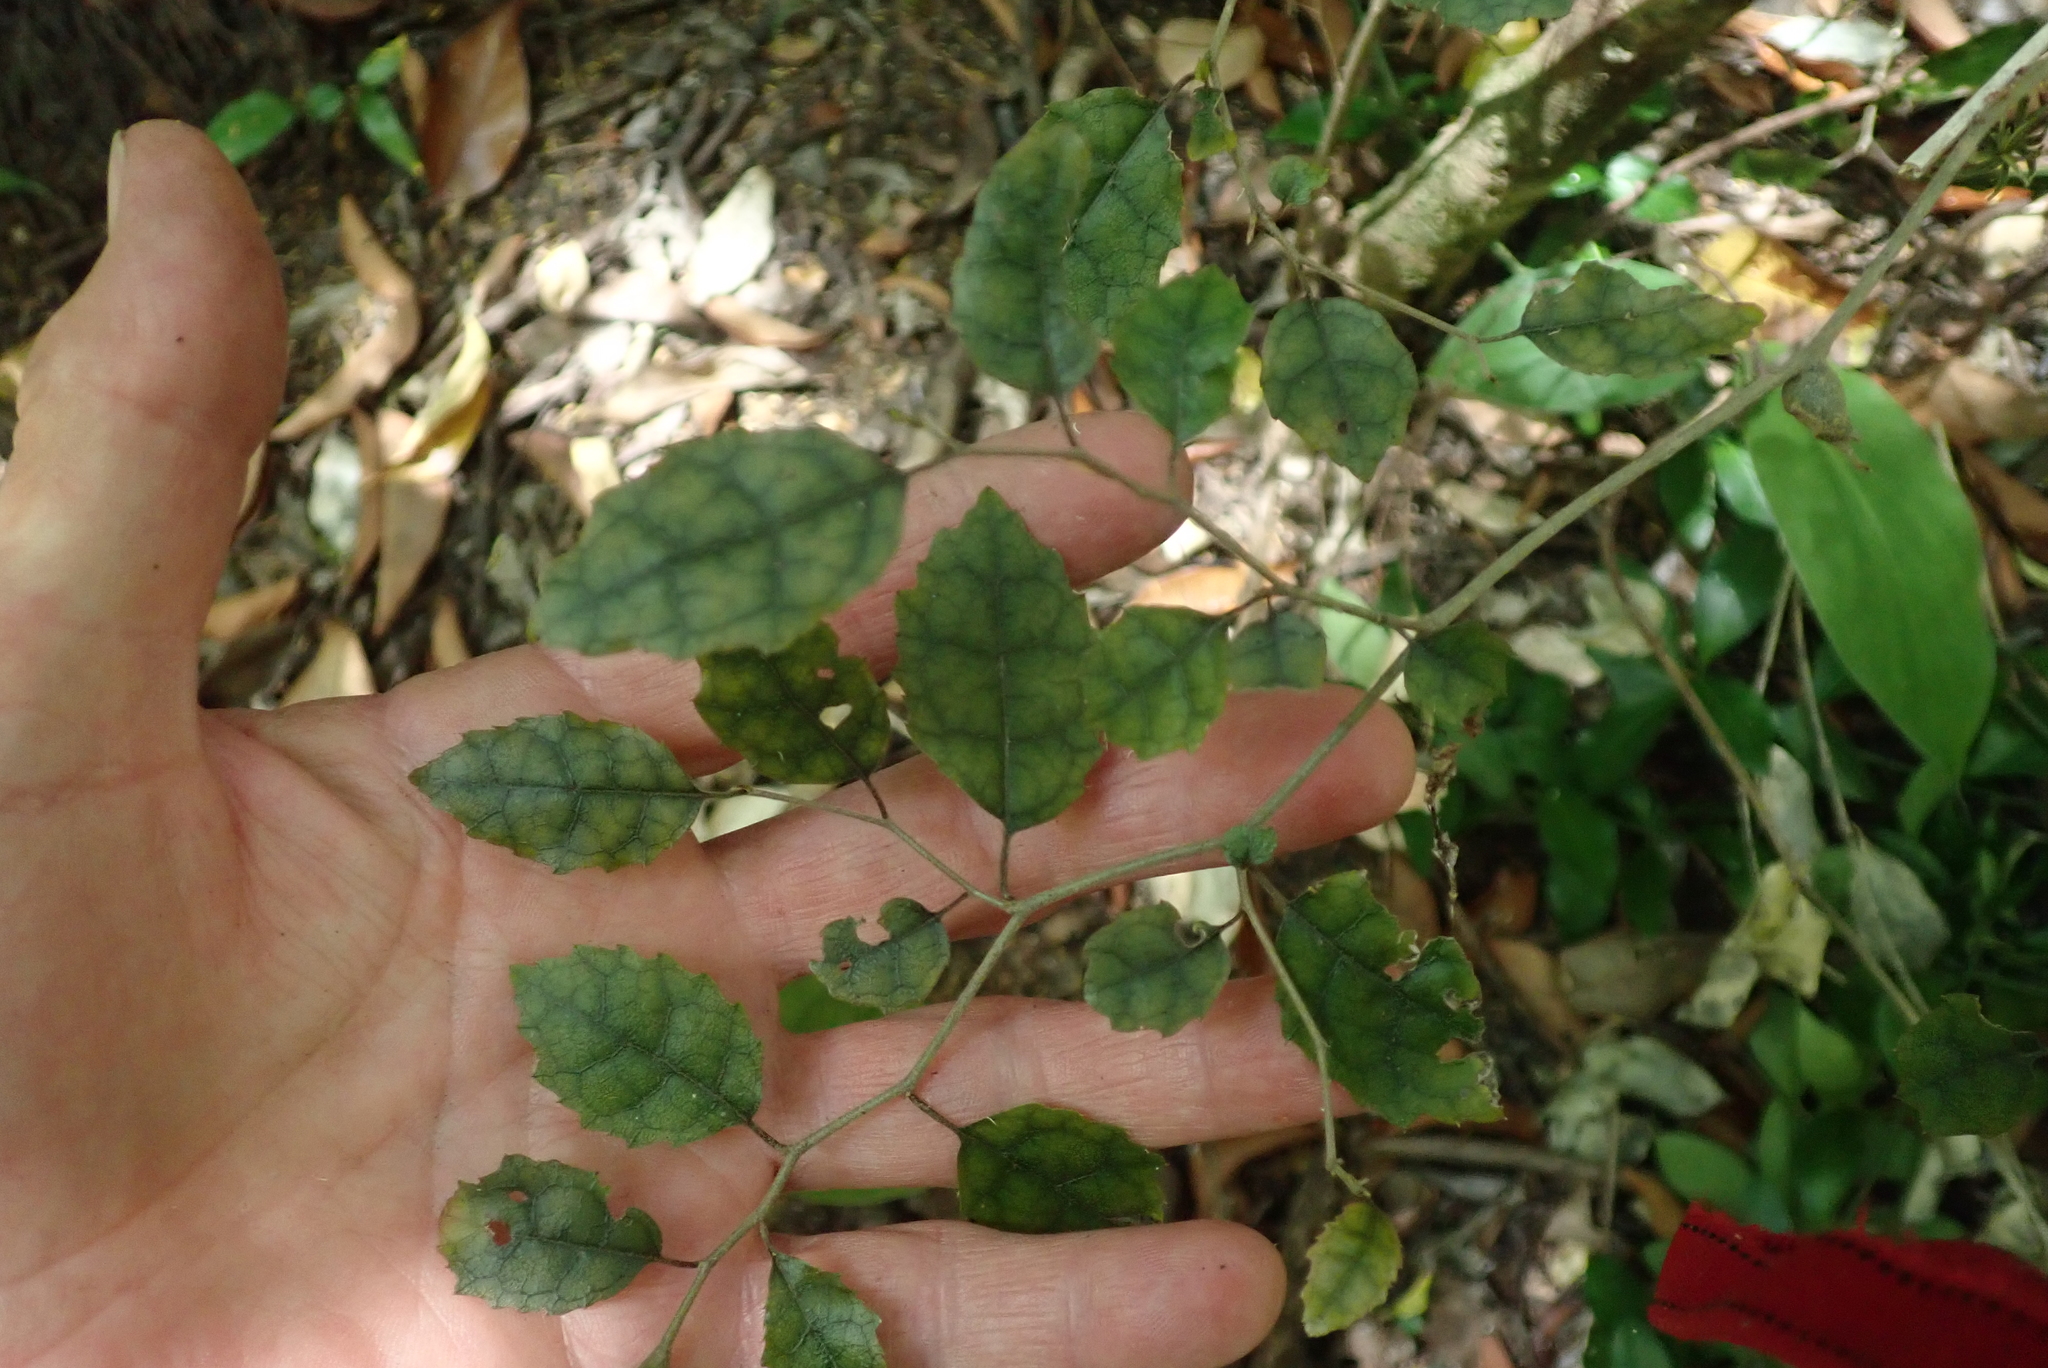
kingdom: Plantae
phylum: Tracheophyta
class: Magnoliopsida
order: Asterales
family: Rousseaceae
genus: Carpodetus
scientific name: Carpodetus serratus
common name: White mapau
